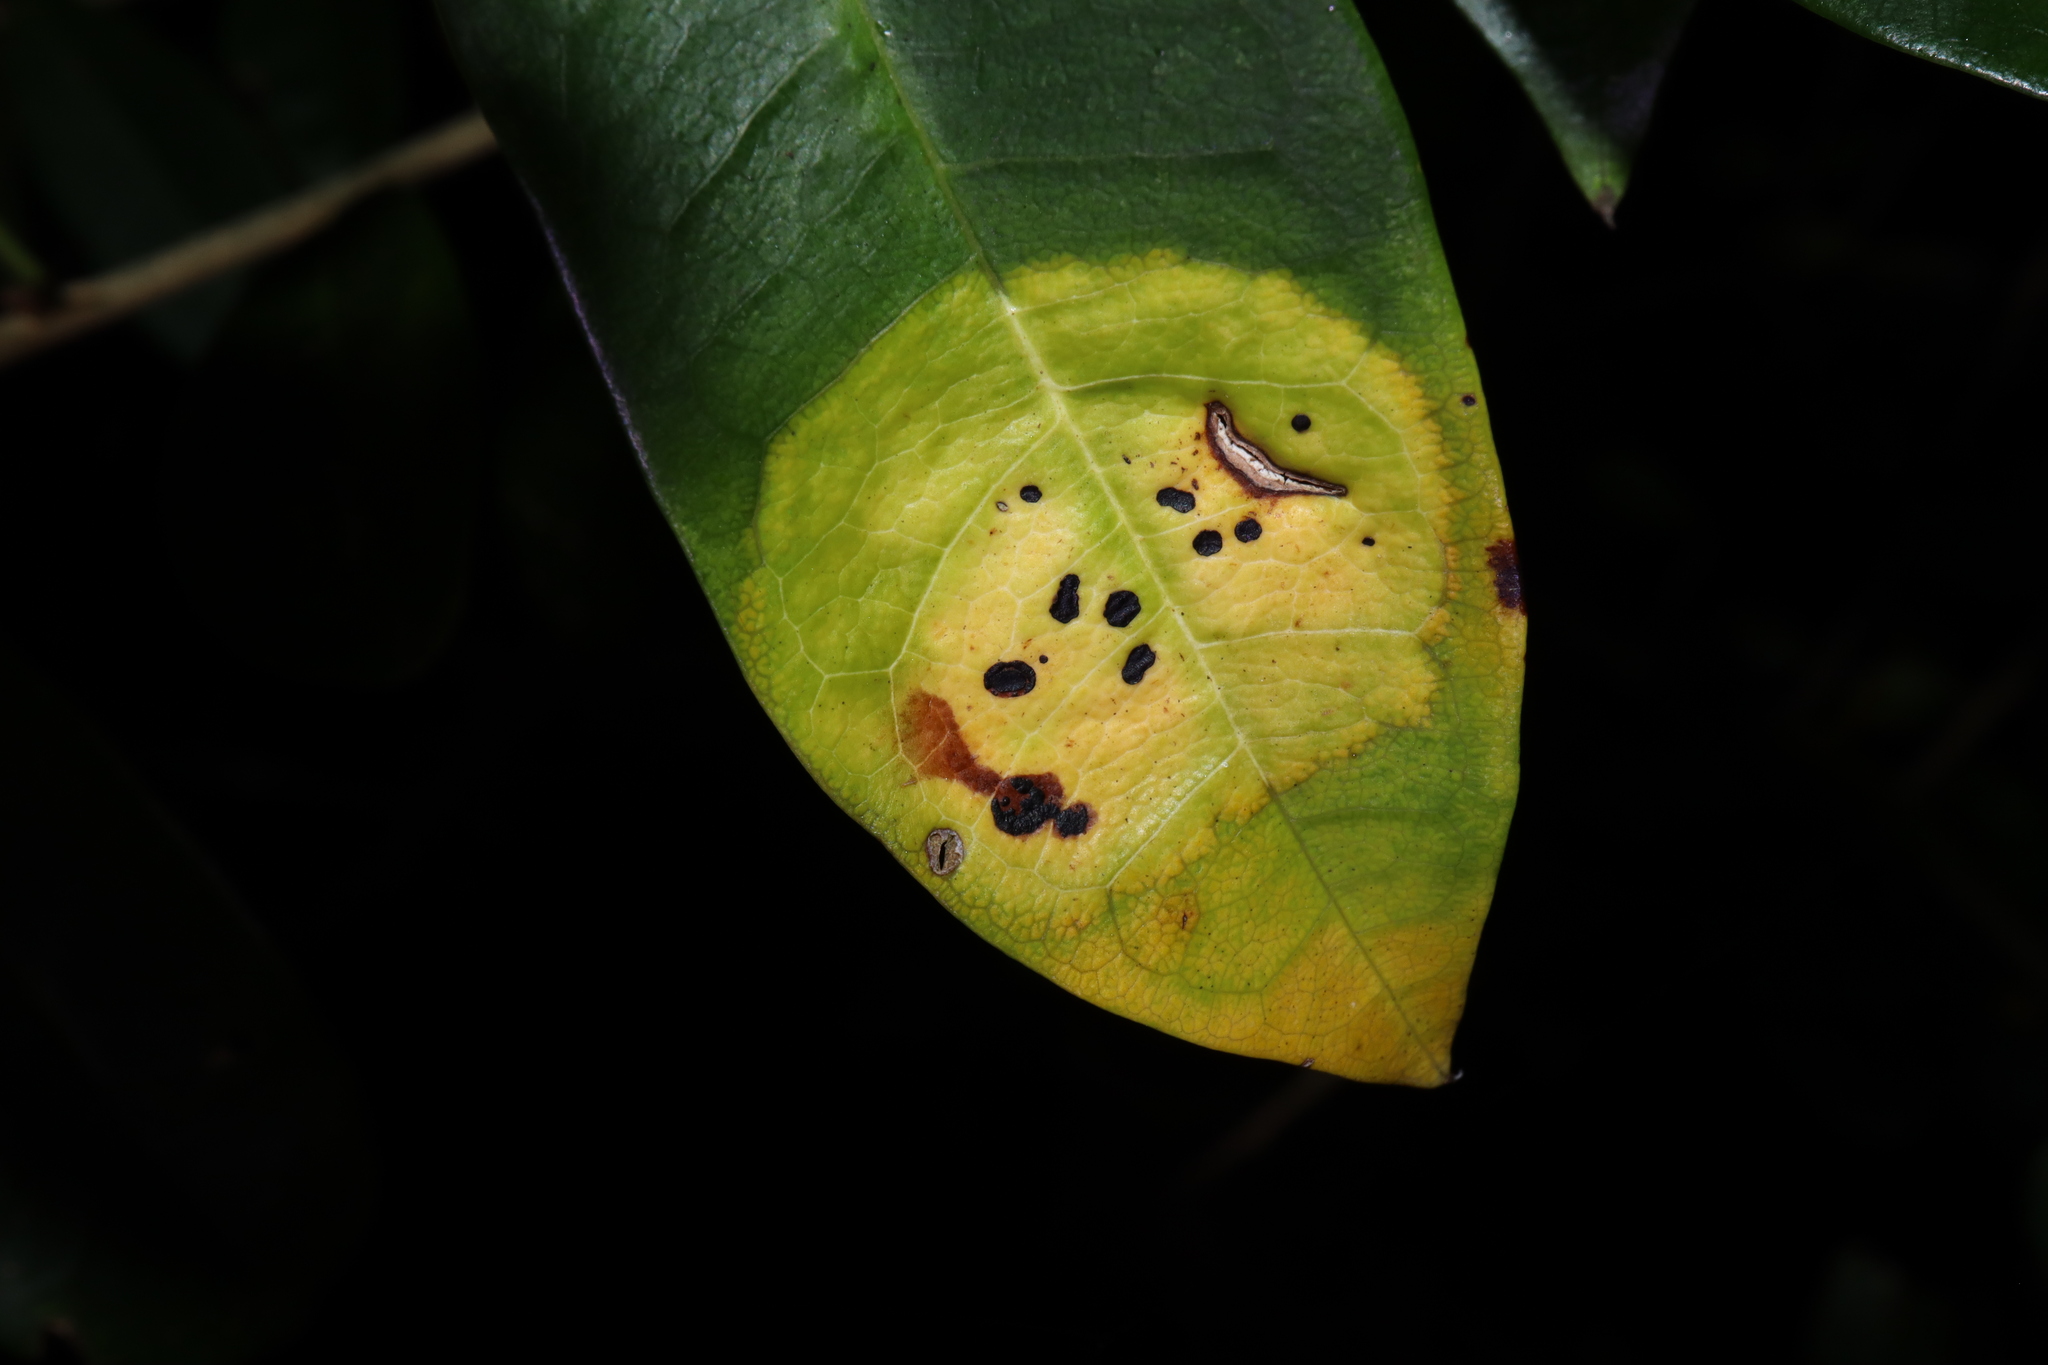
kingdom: Fungi
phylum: Ascomycota
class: Dothideomycetes
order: Mycosphaerellales
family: Mycosphaerellaceae
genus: Zasmidium
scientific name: Zasmidium macluricola
